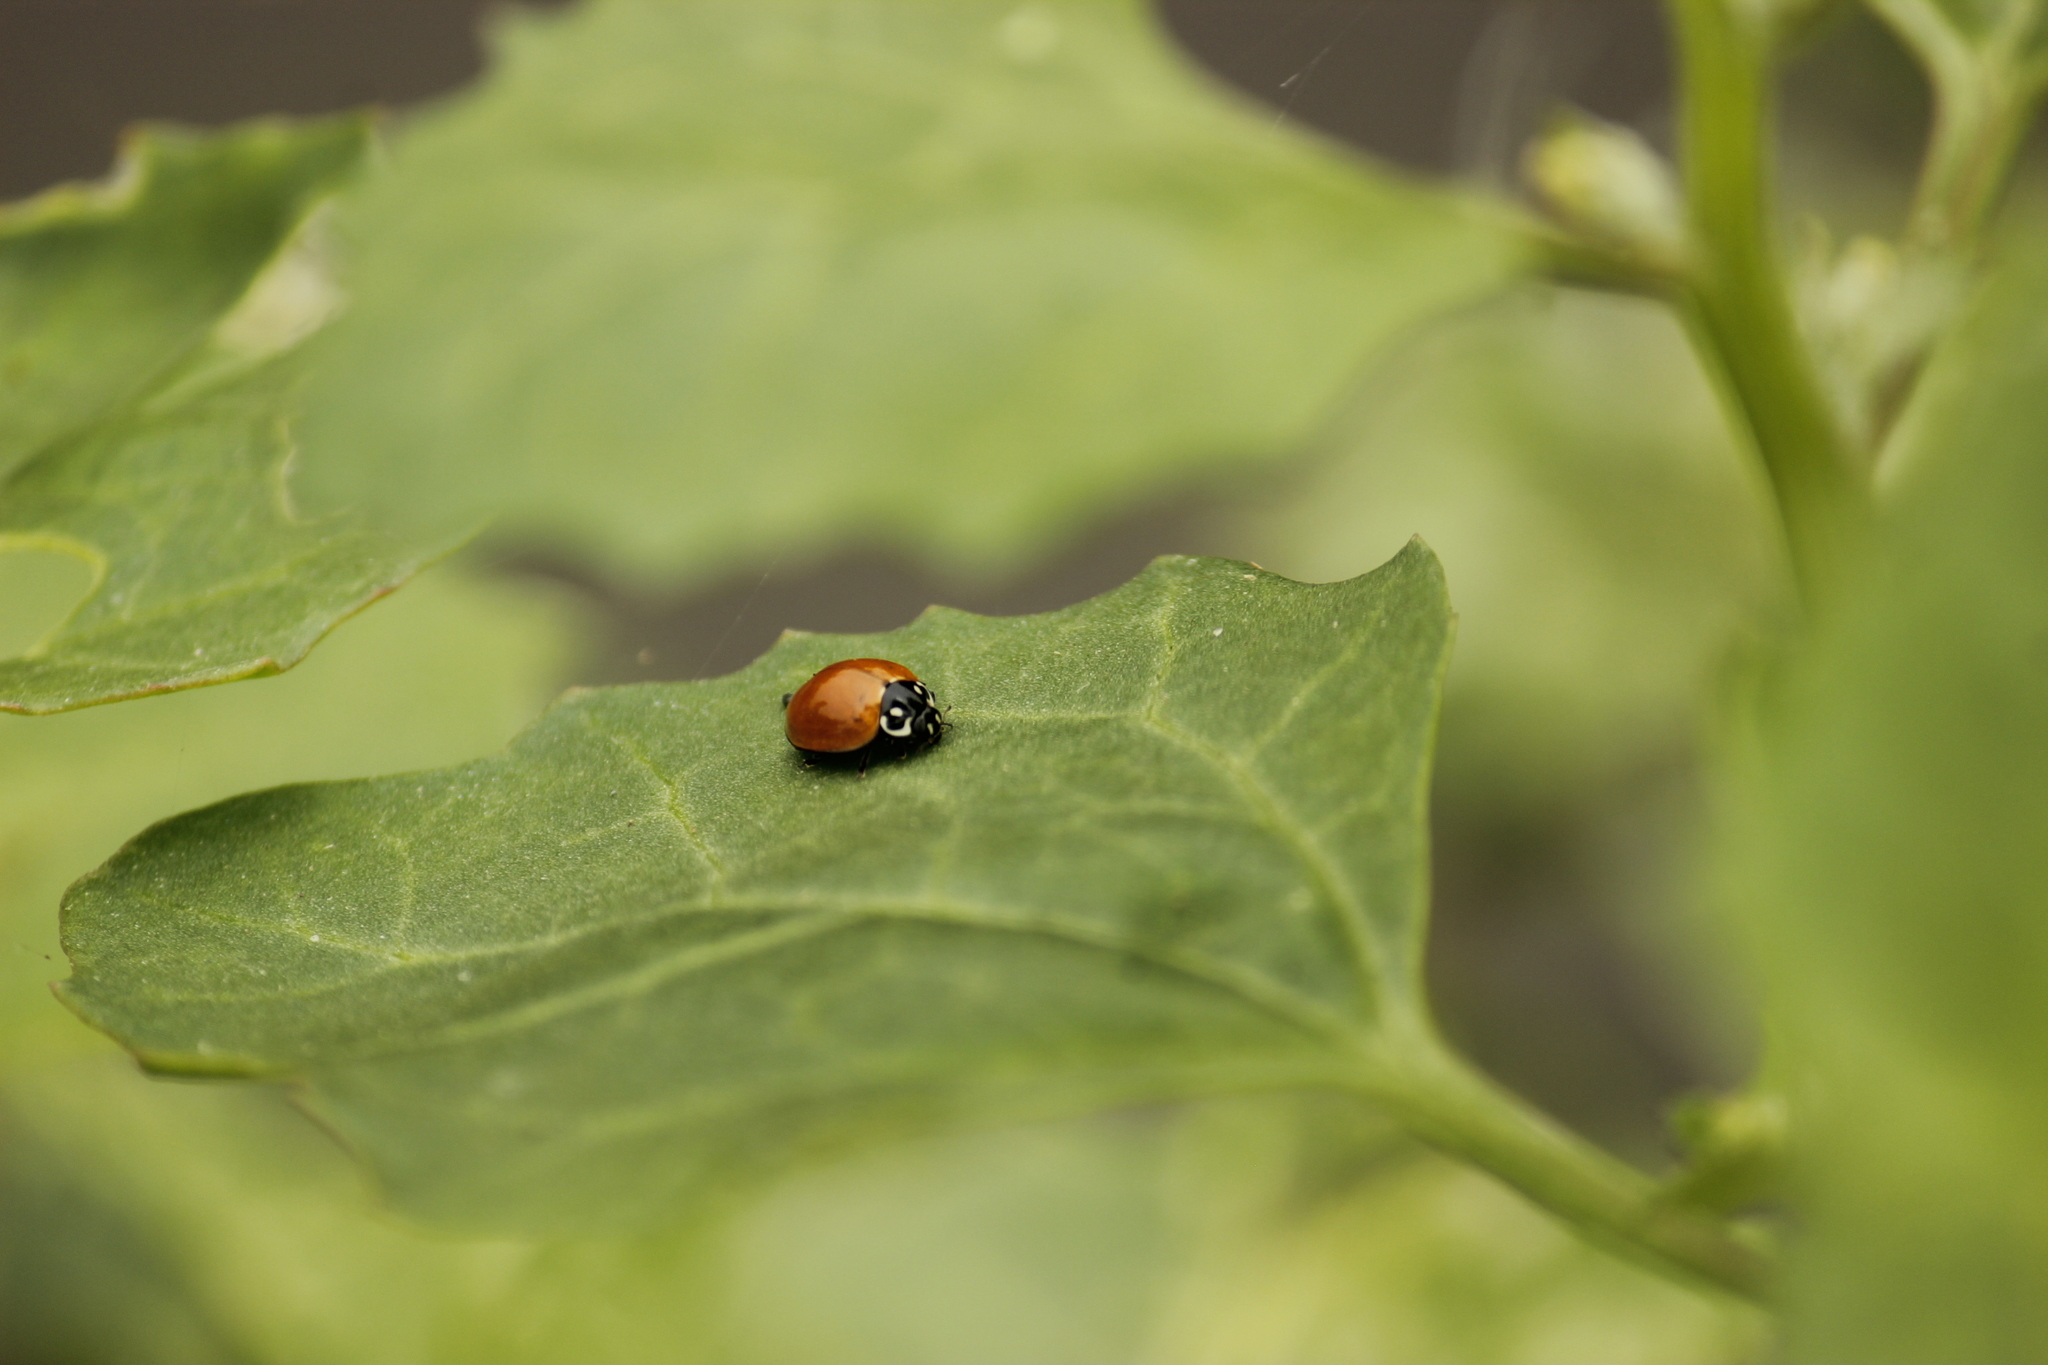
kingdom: Animalia
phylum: Arthropoda
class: Insecta
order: Coleoptera
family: Coccinellidae
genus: Cycloneda
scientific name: Cycloneda sanguinea
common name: Ladybird beetle
